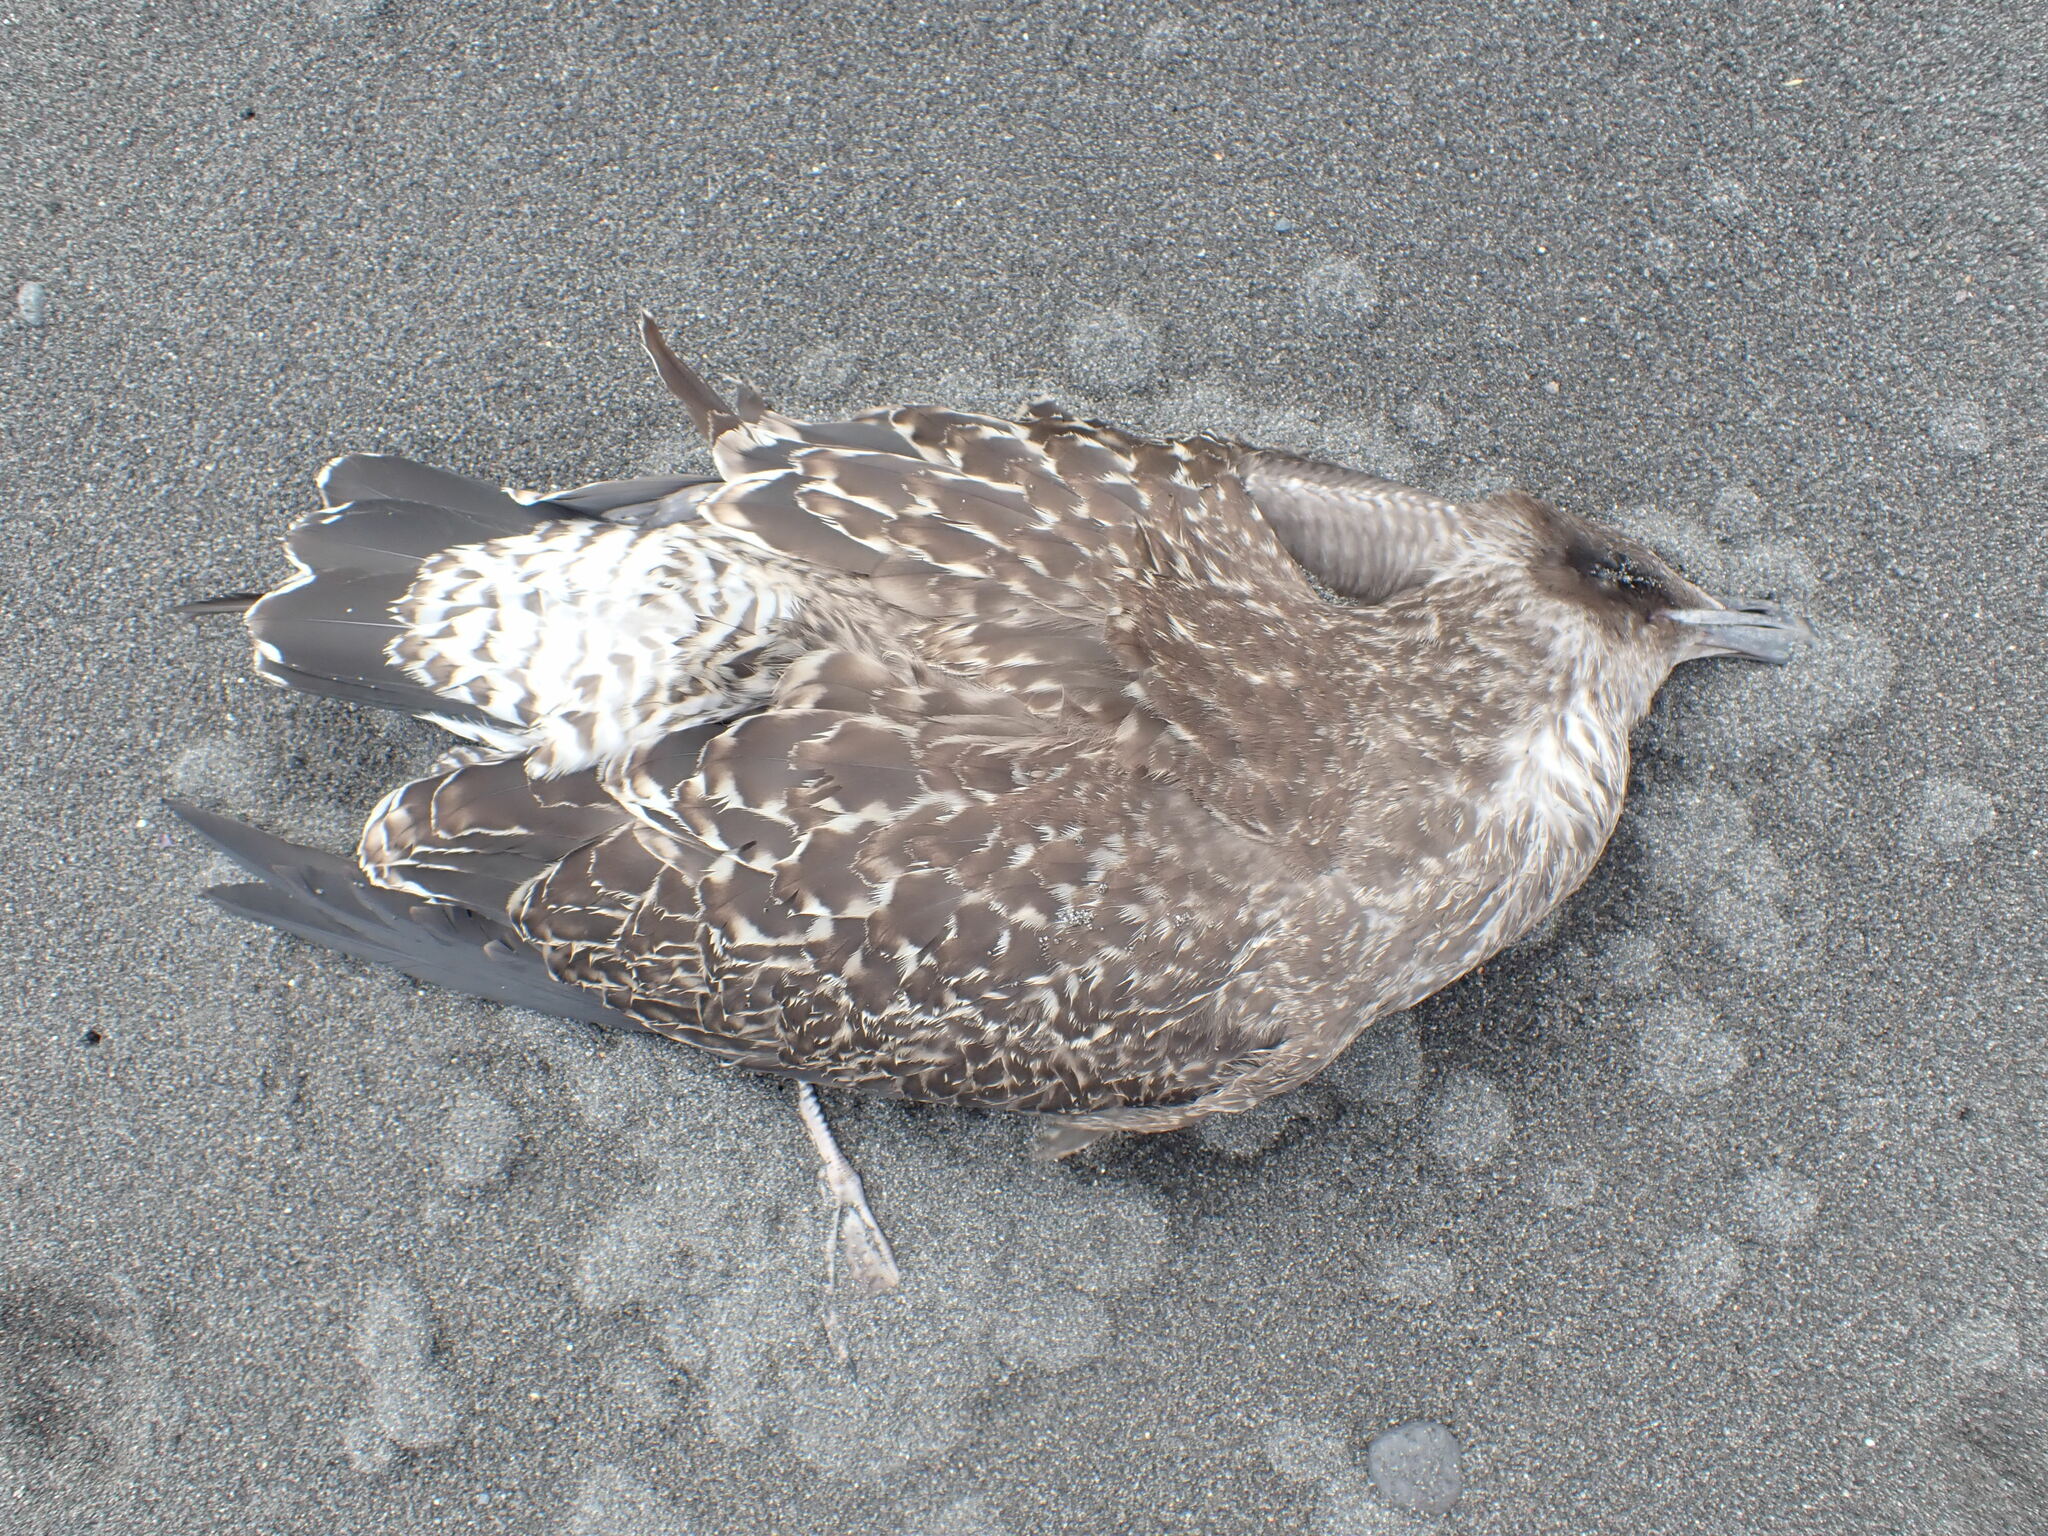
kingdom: Animalia
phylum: Chordata
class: Aves
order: Charadriiformes
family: Laridae
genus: Larus
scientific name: Larus dominicanus
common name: Kelp gull
